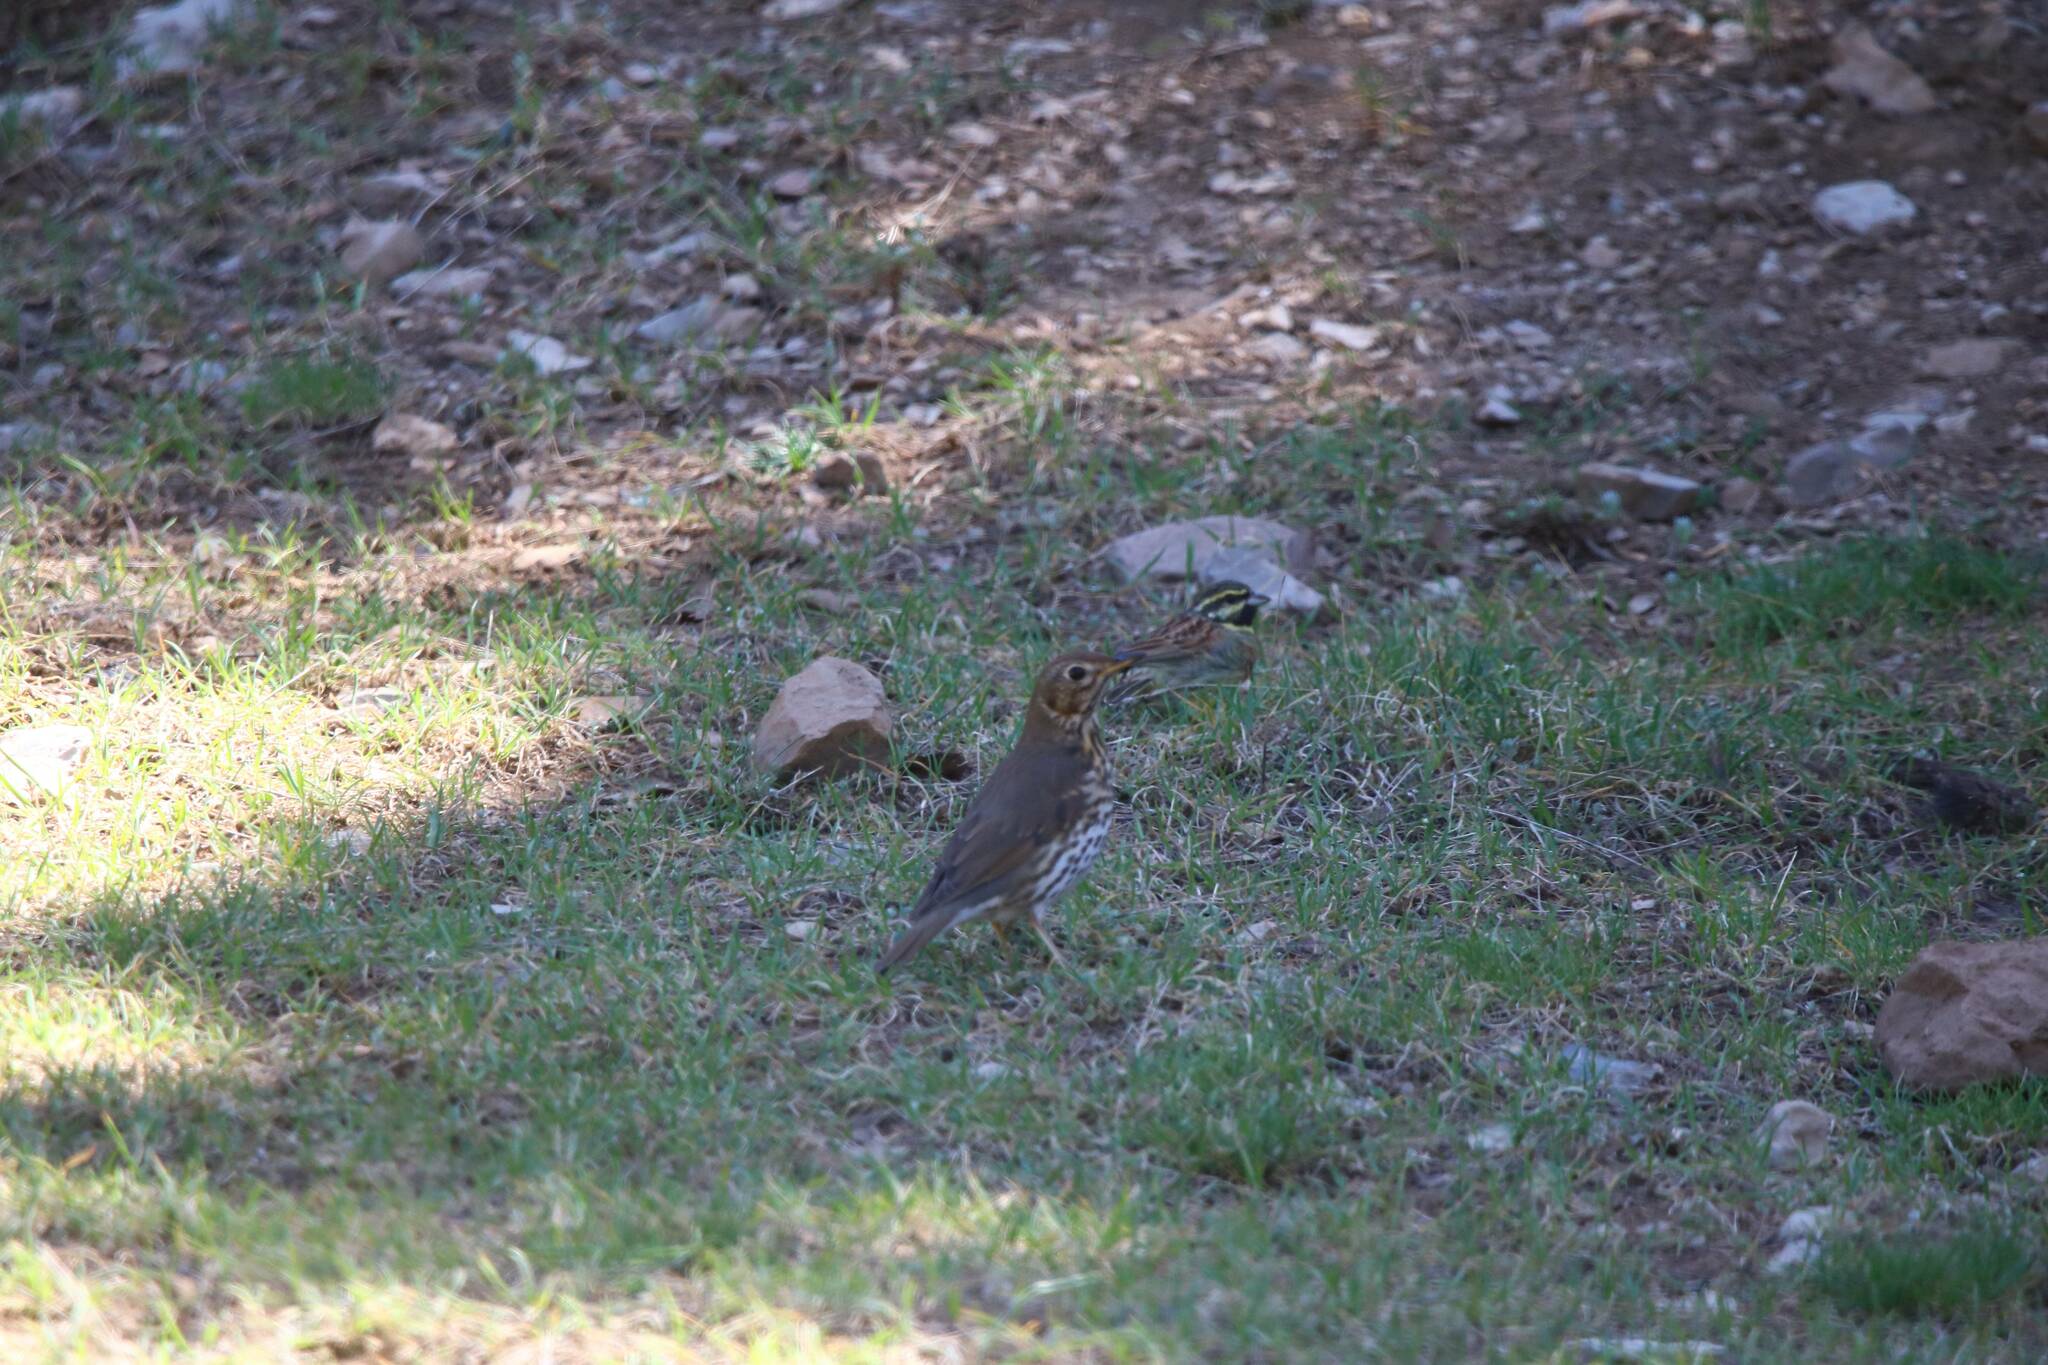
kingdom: Animalia
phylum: Chordata
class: Aves
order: Passeriformes
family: Turdidae
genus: Turdus
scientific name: Turdus philomelos
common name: Song thrush
